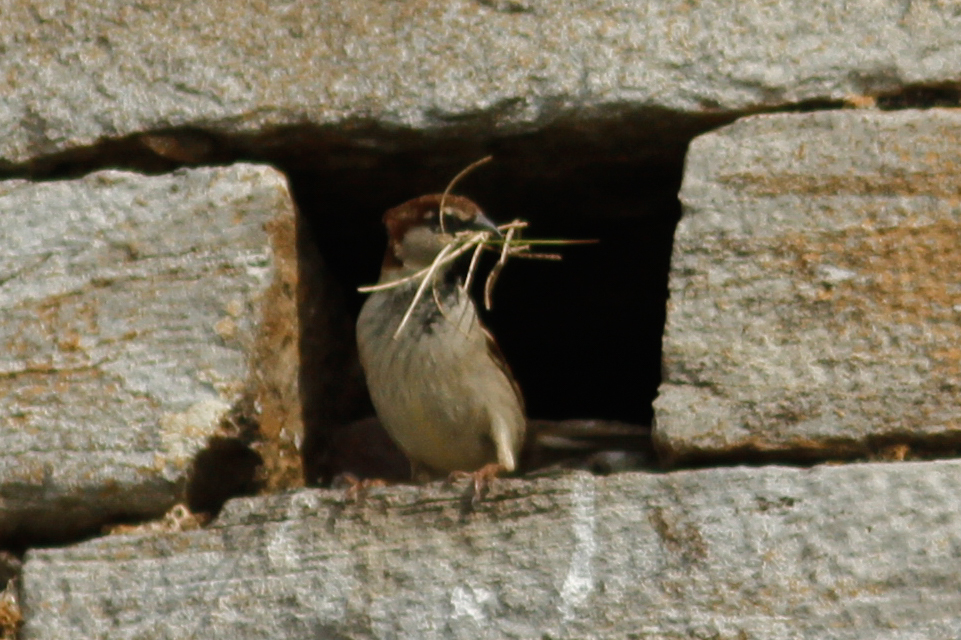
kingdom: Animalia
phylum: Chordata
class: Aves
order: Passeriformes
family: Passeridae
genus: Passer
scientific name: Passer italiae
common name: Italian sparrow
